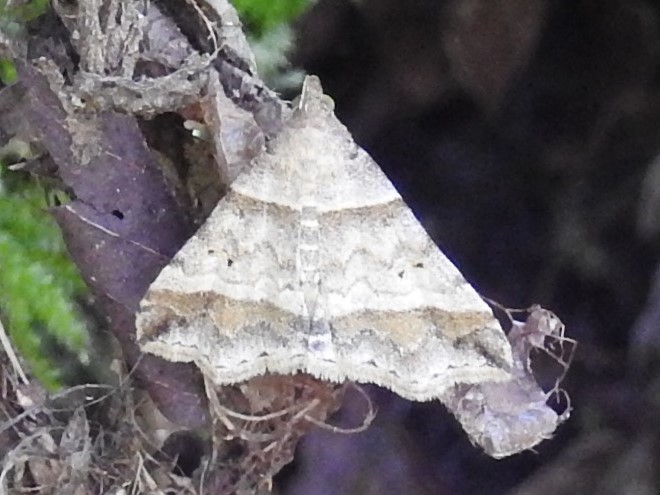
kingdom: Animalia
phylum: Arthropoda
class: Insecta
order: Lepidoptera
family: Erebidae
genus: Phaeolita
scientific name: Phaeolita pyramusalis
